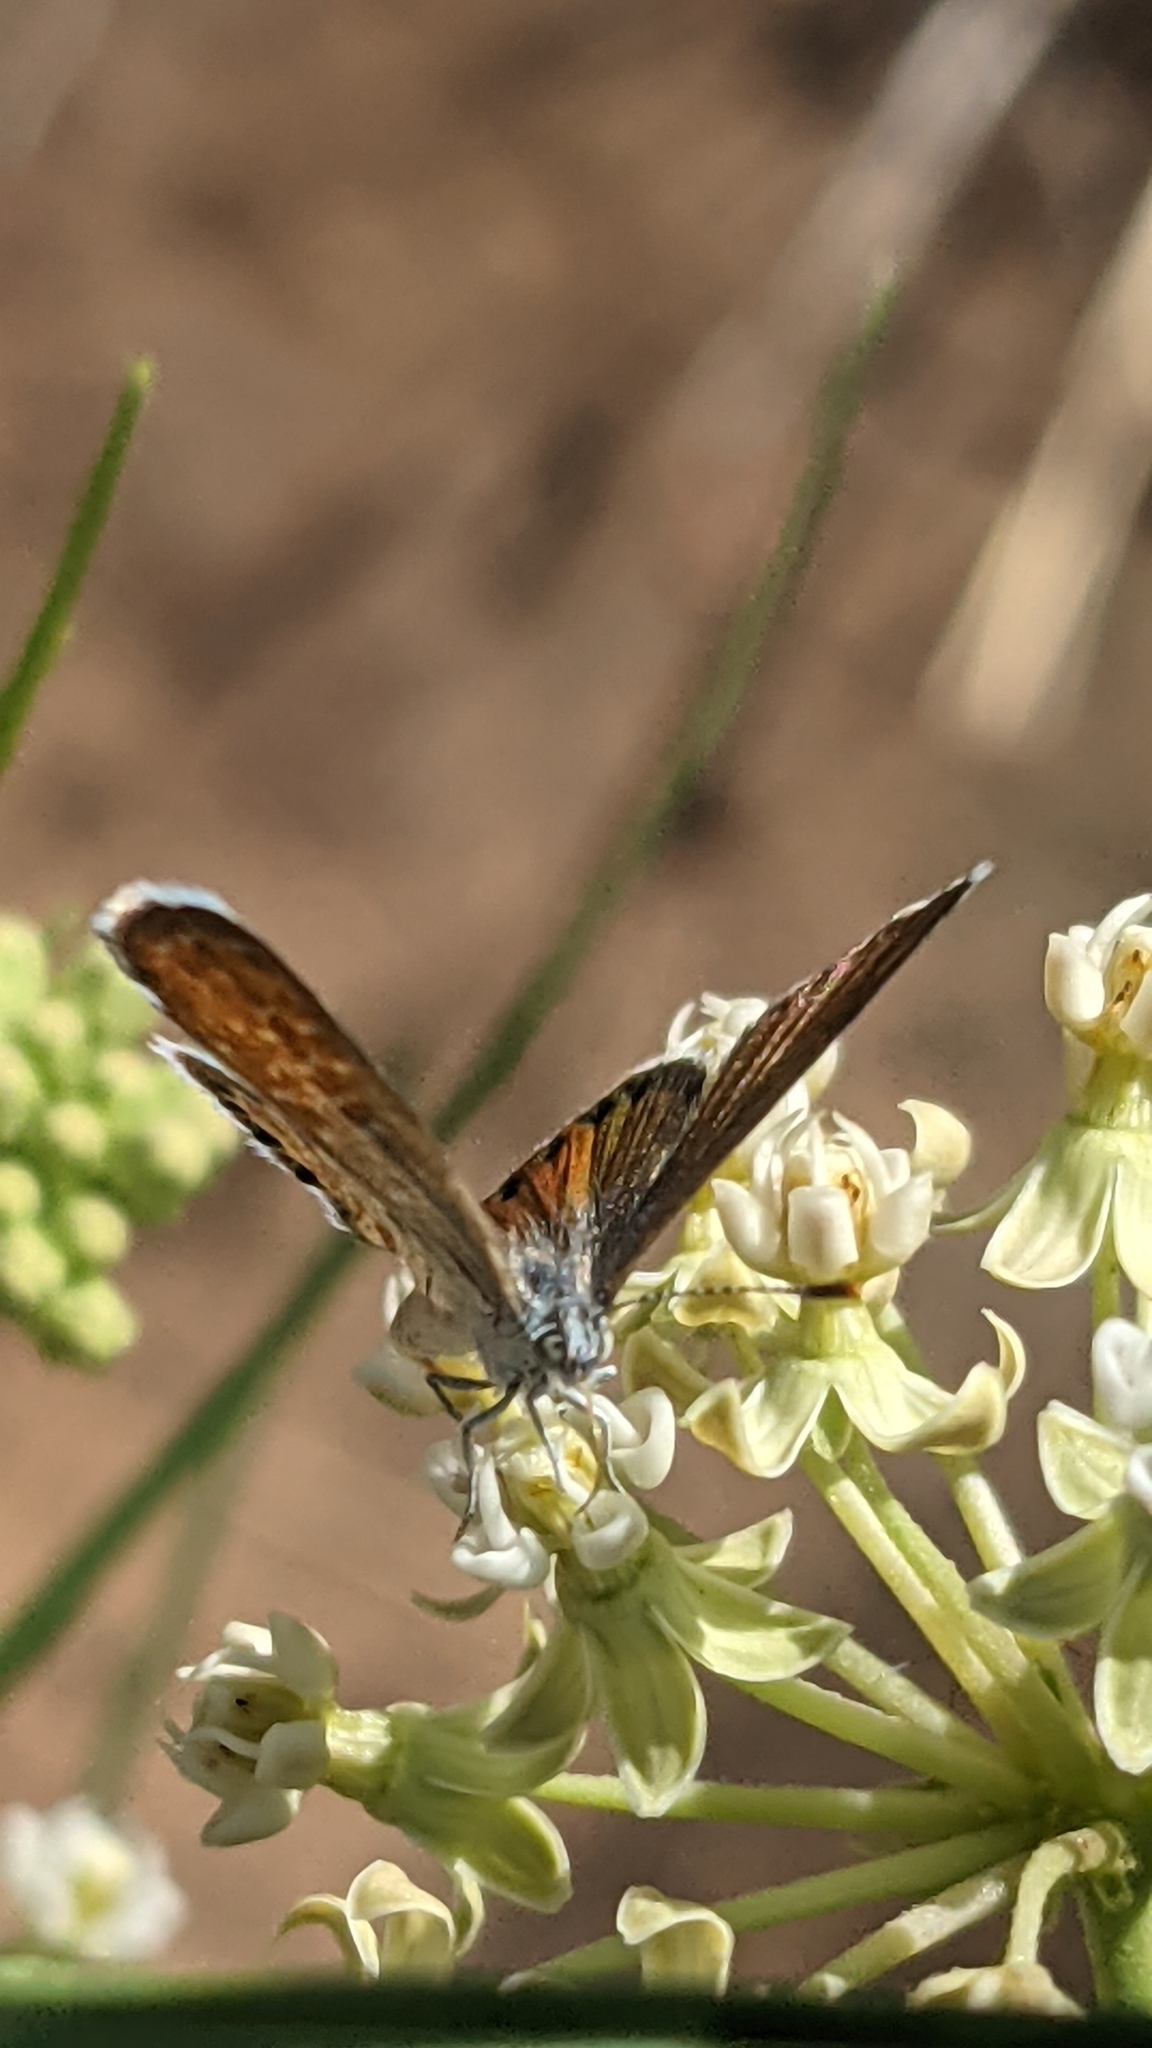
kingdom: Animalia
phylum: Arthropoda
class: Insecta
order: Lepidoptera
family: Lycaenidae
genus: Brephidium
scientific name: Brephidium exilis
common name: Pygmy blue
